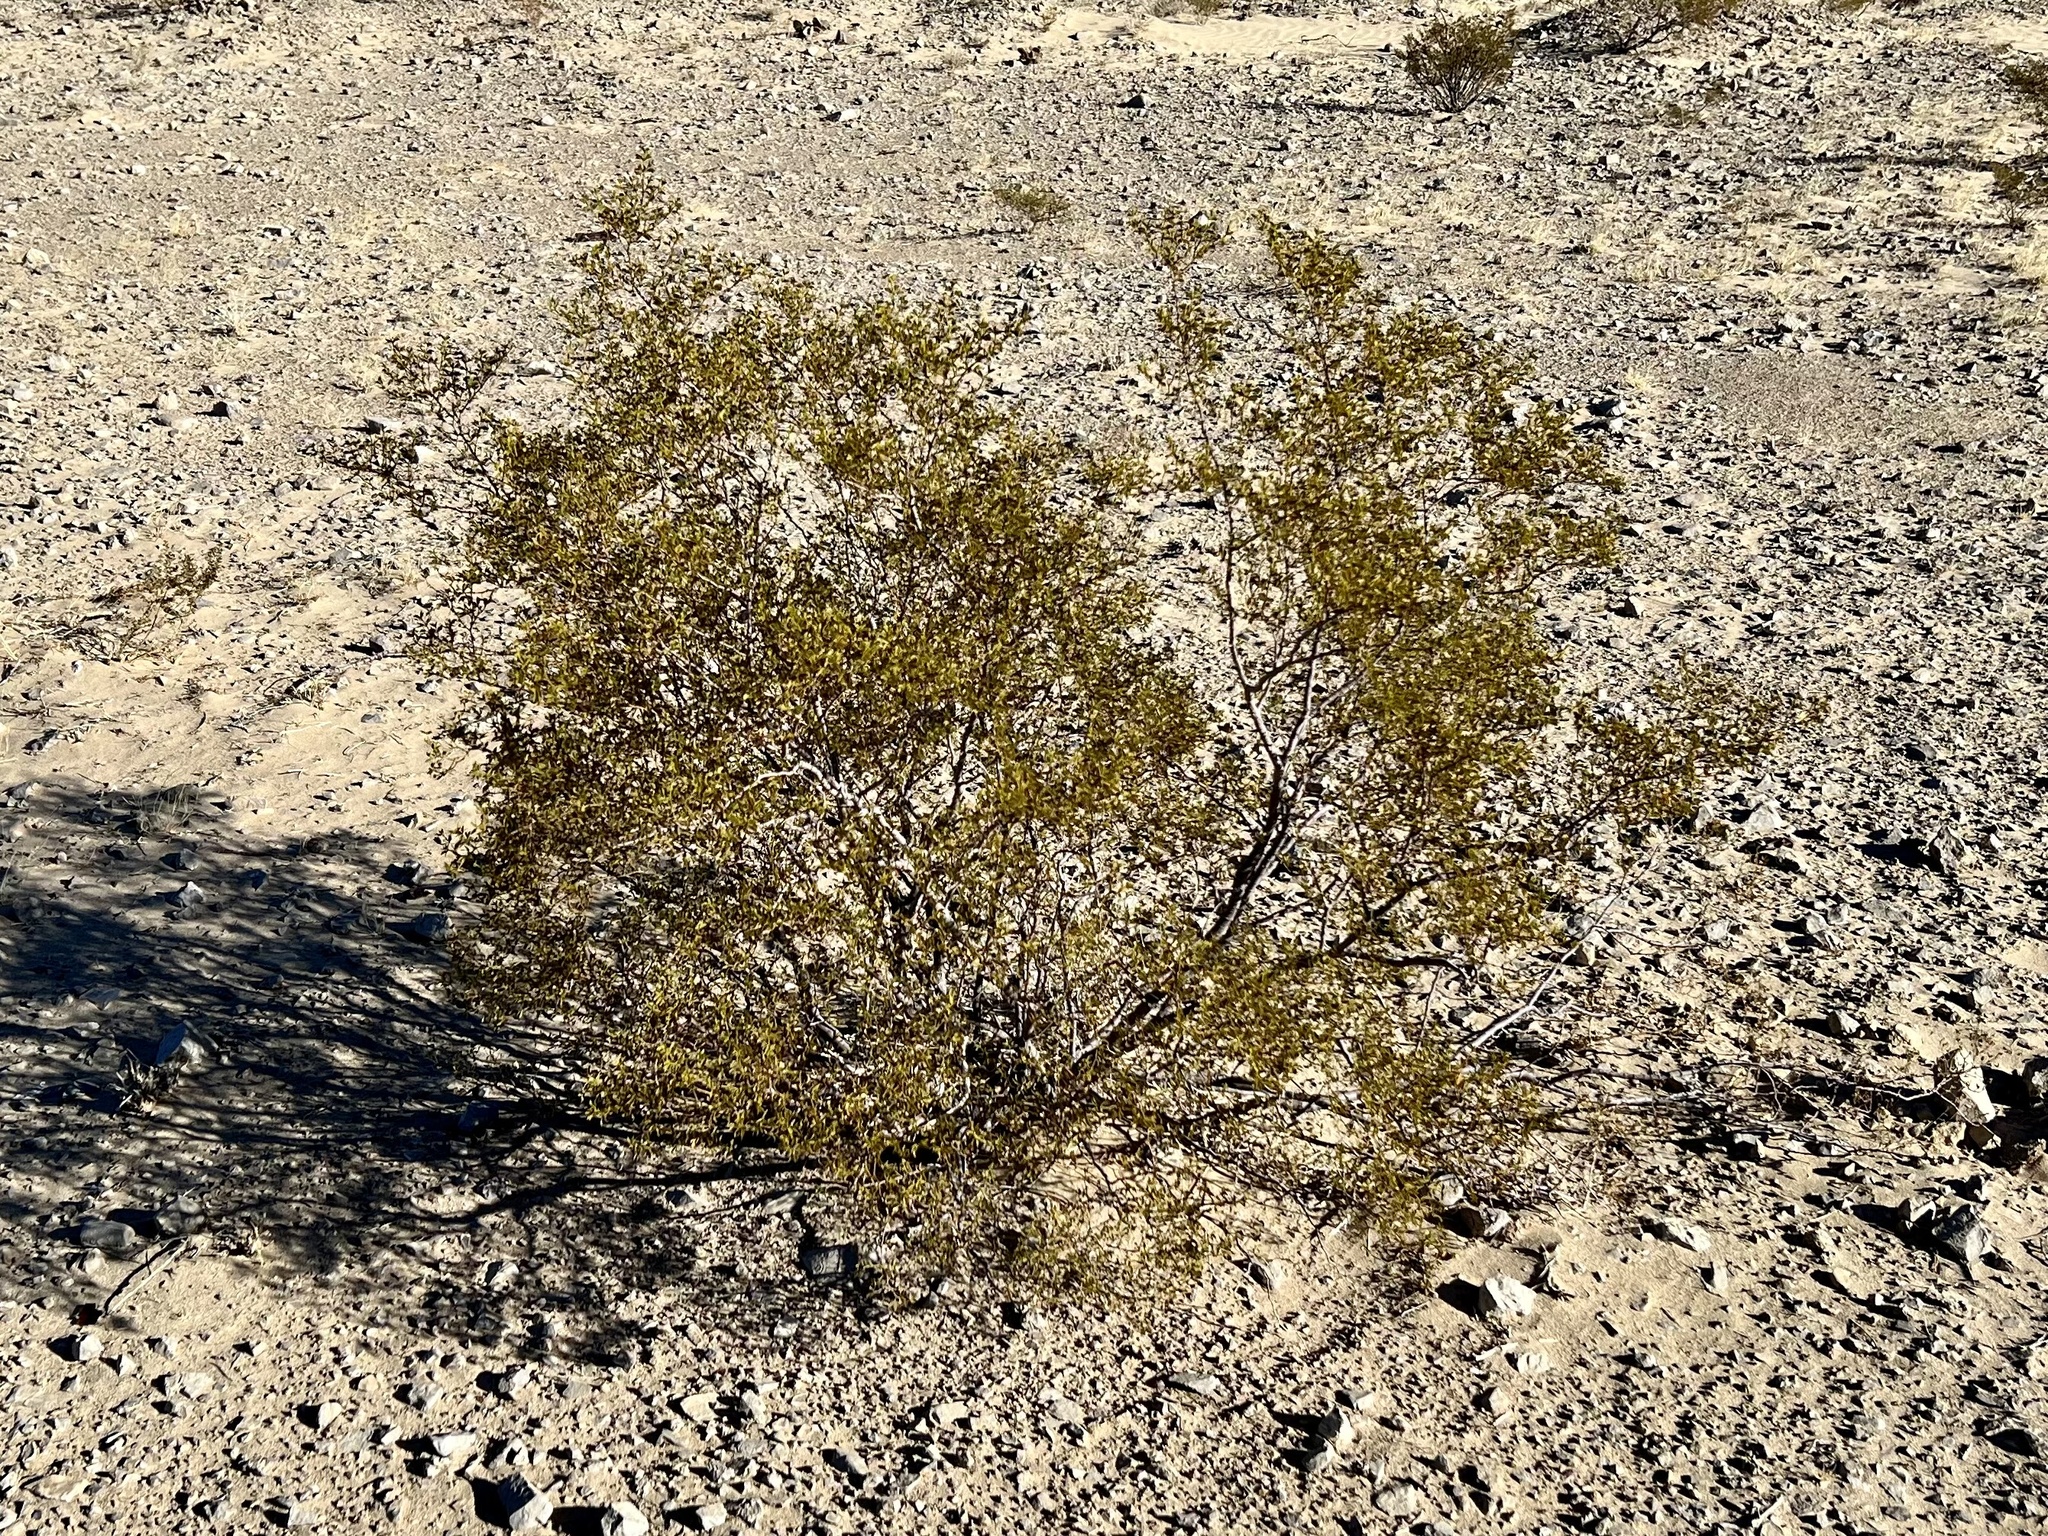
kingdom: Plantae
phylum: Tracheophyta
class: Magnoliopsida
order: Zygophyllales
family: Zygophyllaceae
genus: Larrea
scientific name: Larrea tridentata
